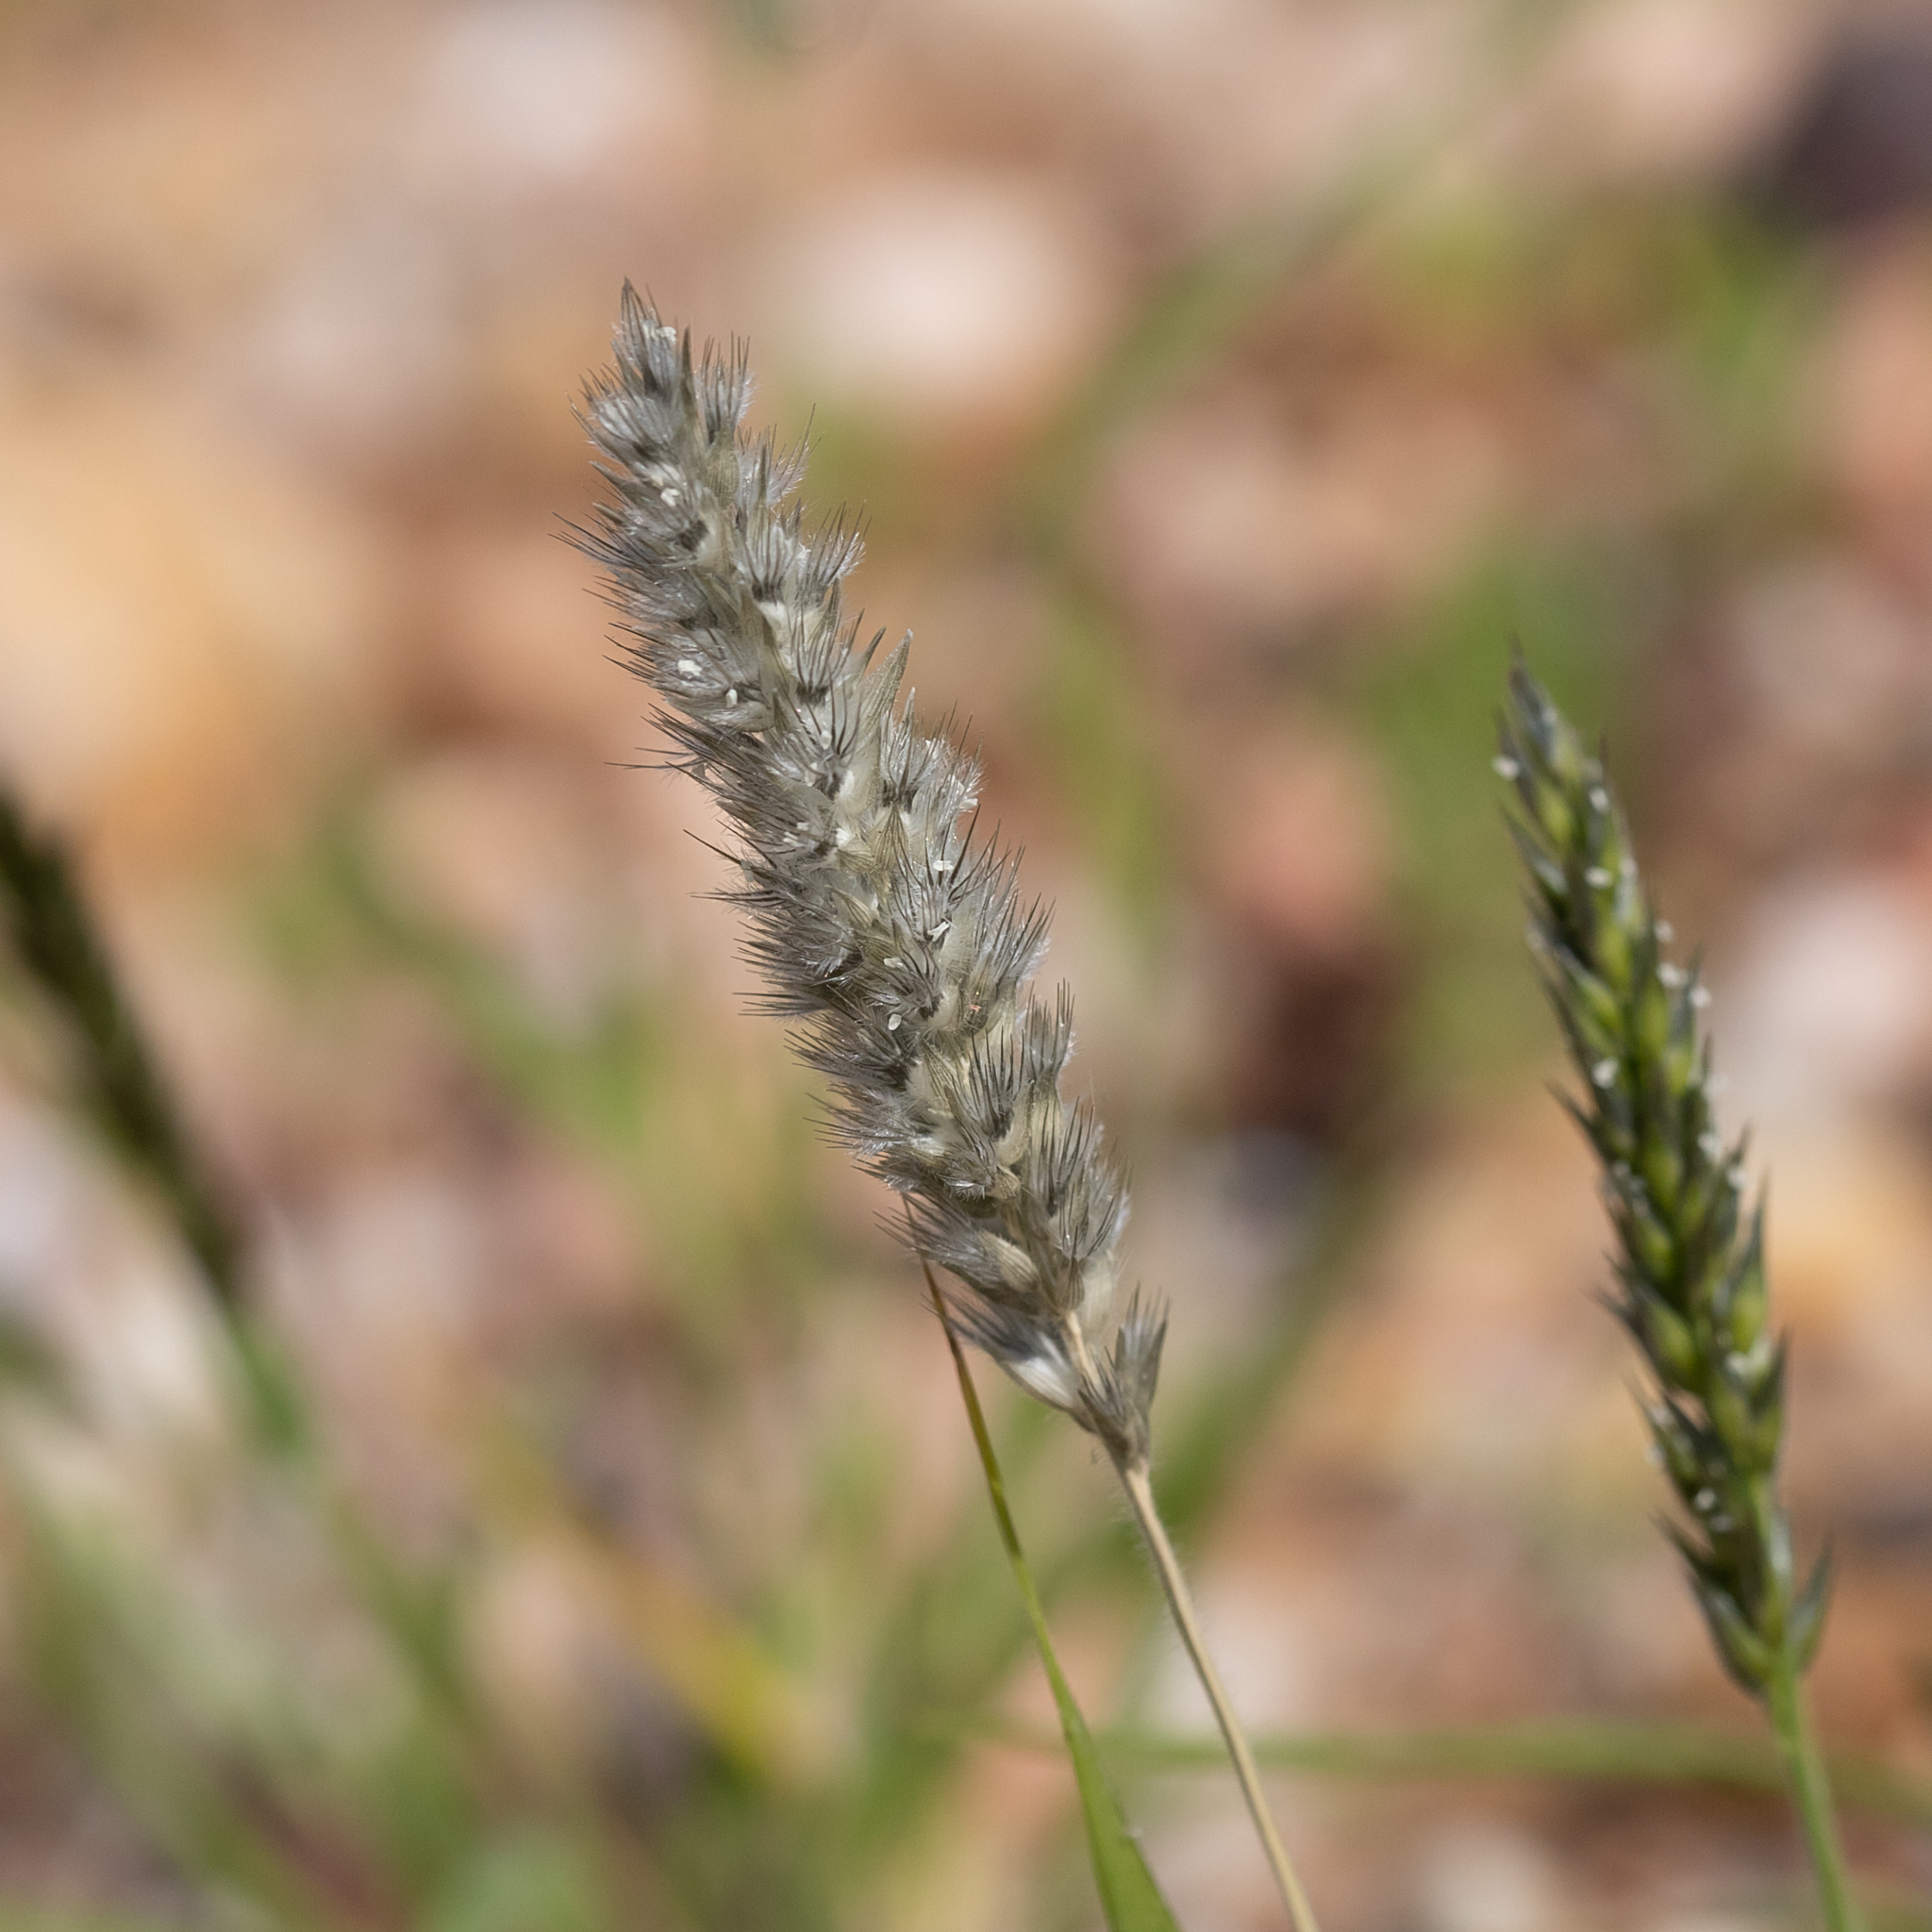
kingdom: Plantae
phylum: Tracheophyta
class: Liliopsida
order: Poales
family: Poaceae
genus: Enneapogon
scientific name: Enneapogon polyphyllus
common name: Leafy nineawn
